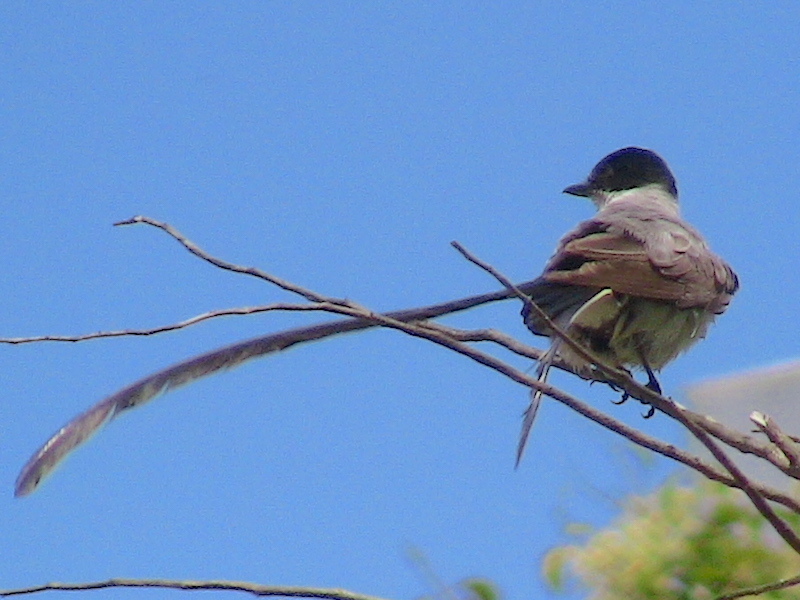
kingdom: Animalia
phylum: Chordata
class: Aves
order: Passeriformes
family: Tyrannidae
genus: Tyrannus
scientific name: Tyrannus savana
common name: Fork-tailed flycatcher
